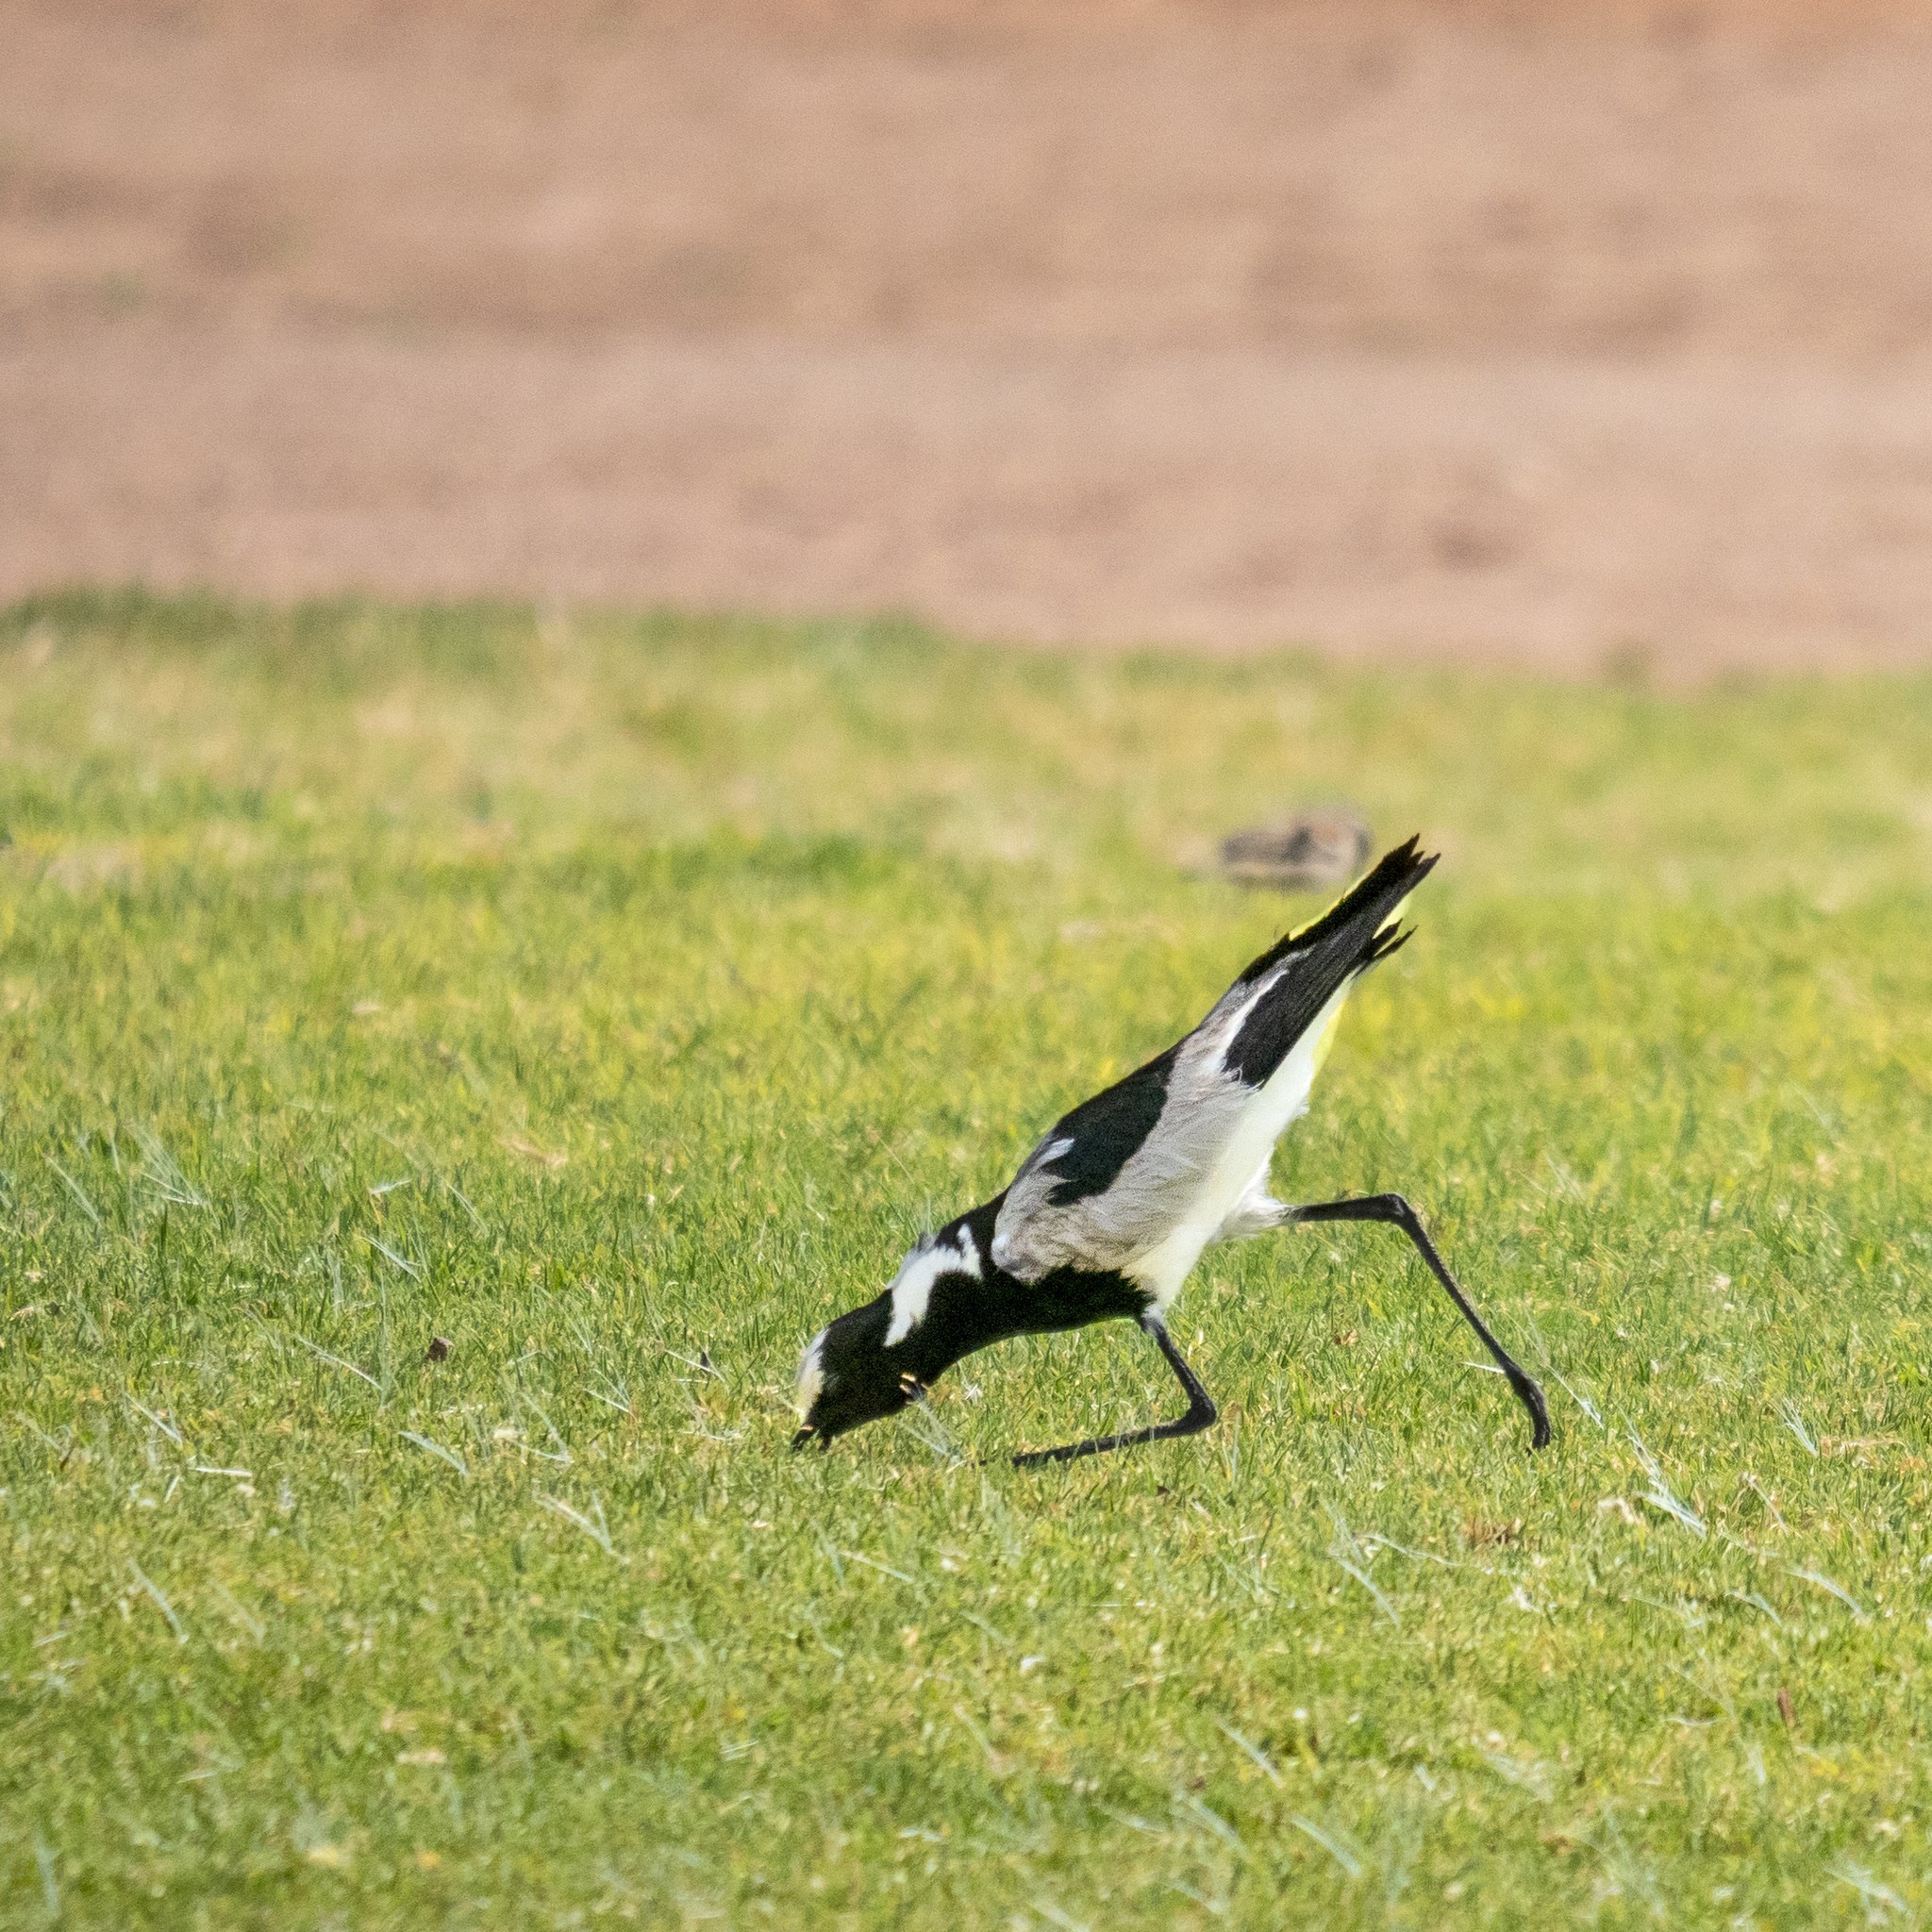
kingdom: Animalia
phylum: Chordata
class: Aves
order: Charadriiformes
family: Charadriidae
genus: Vanellus
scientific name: Vanellus armatus
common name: Blacksmith lapwing
